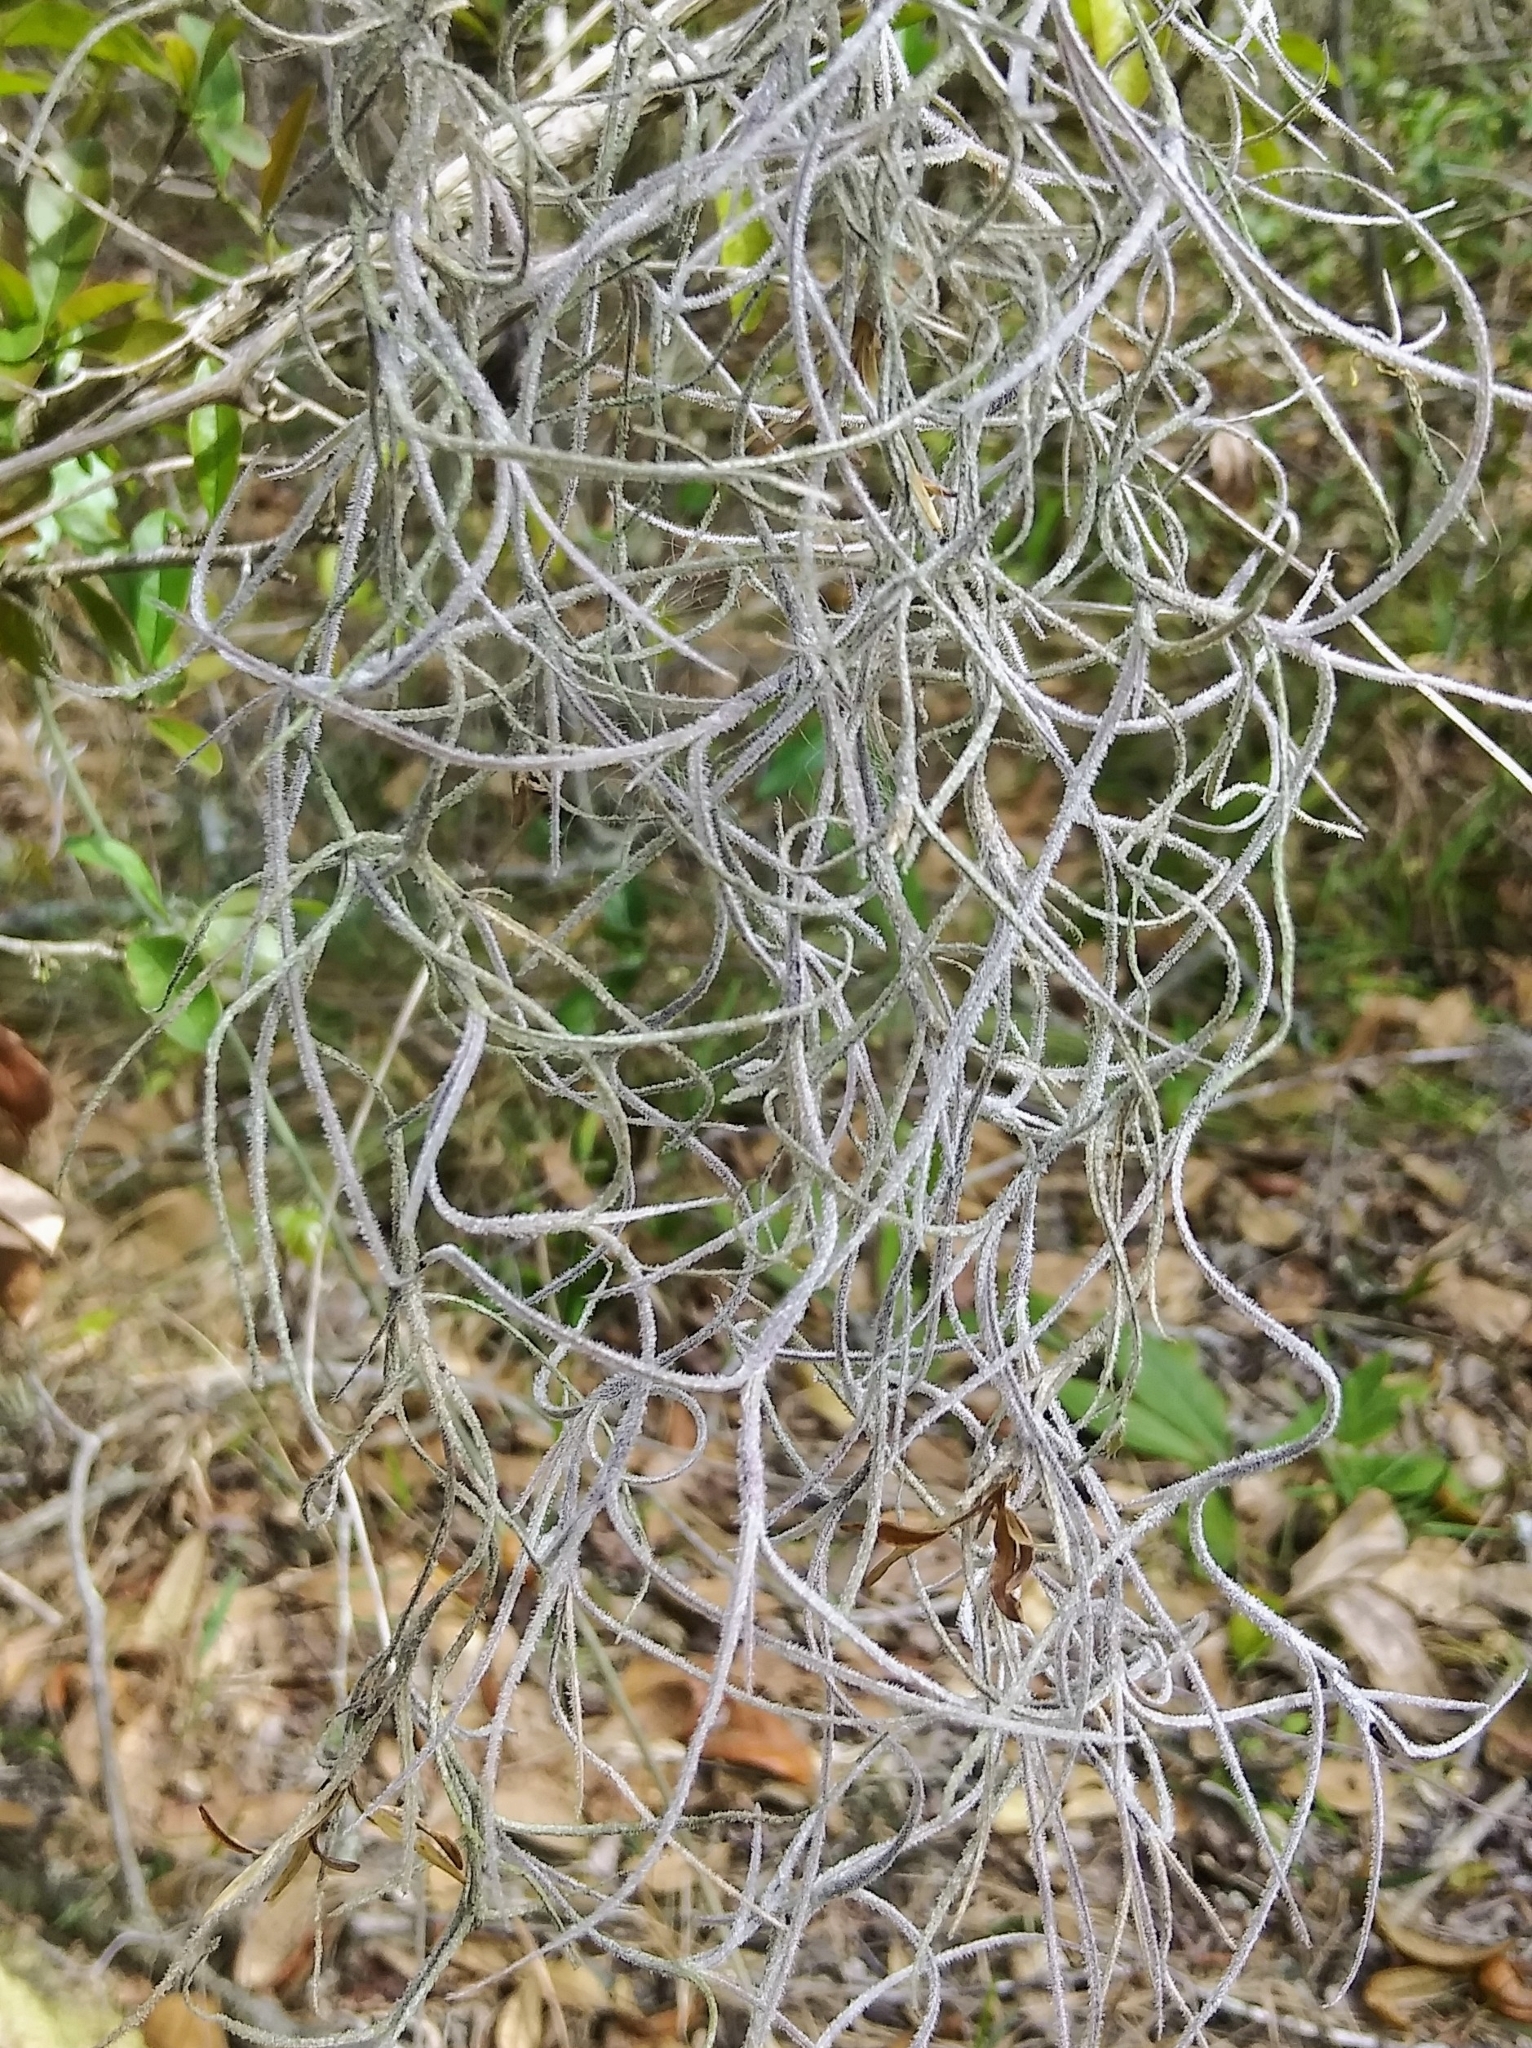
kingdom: Plantae
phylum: Tracheophyta
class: Liliopsida
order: Poales
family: Bromeliaceae
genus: Tillandsia
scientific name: Tillandsia usneoides
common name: Spanish moss
